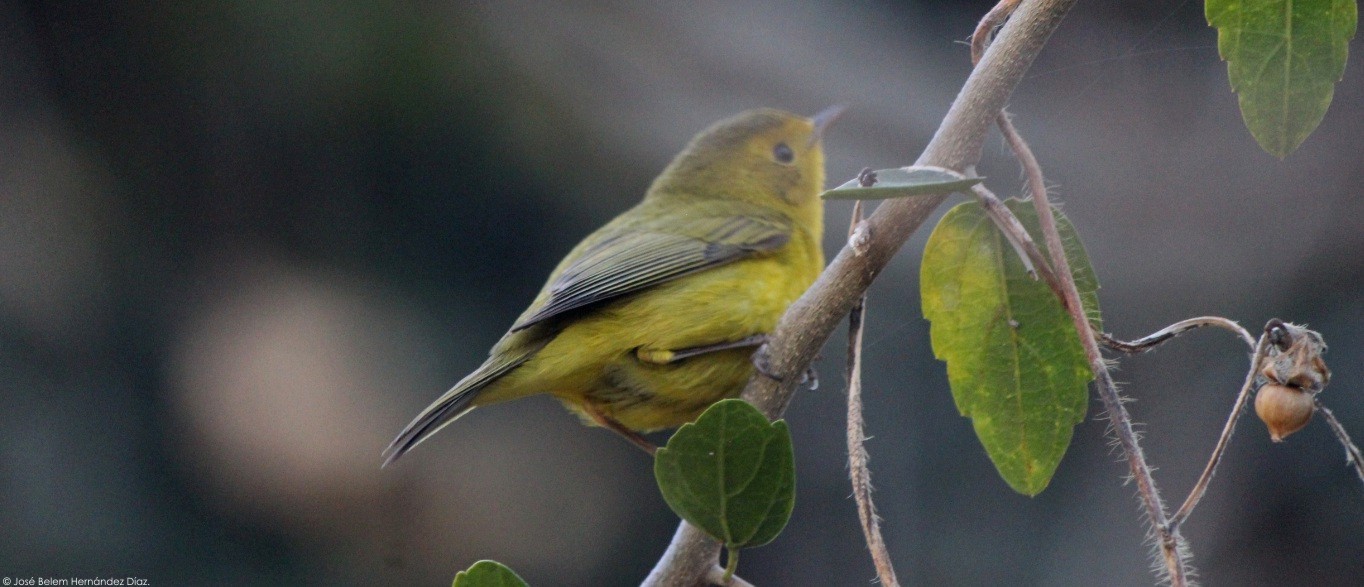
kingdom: Animalia
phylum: Chordata
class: Aves
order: Passeriformes
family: Parulidae
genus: Cardellina
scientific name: Cardellina pusilla
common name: Wilson's warbler
